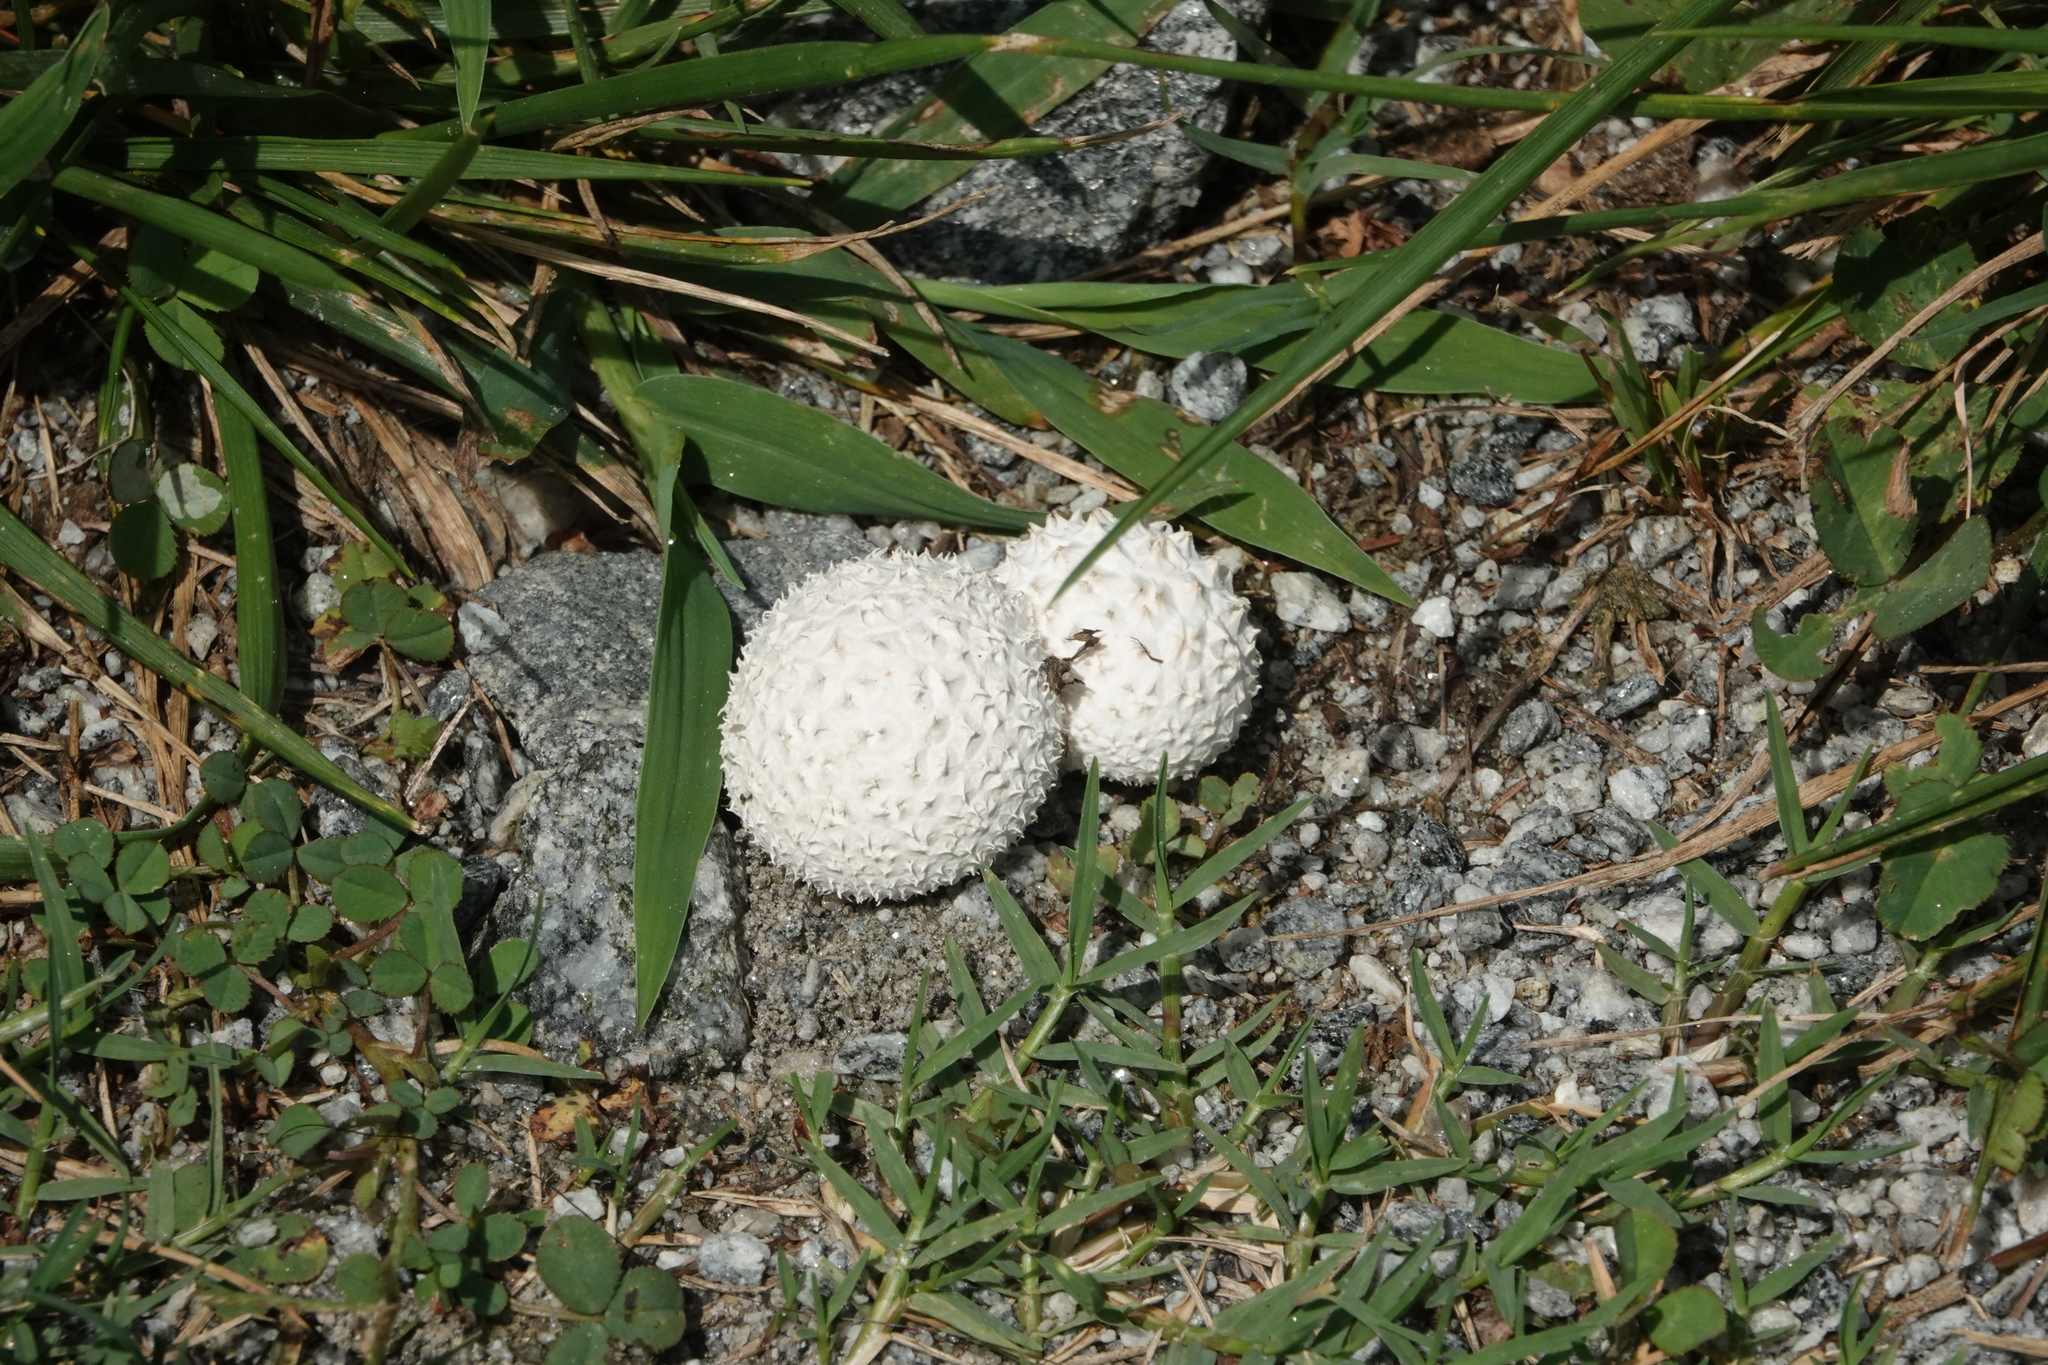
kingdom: Fungi
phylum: Basidiomycota
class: Agaricomycetes
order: Agaricales
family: Agaricaceae
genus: Lycoperdon
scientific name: Lycoperdon marginatum
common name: Peeling puffball
